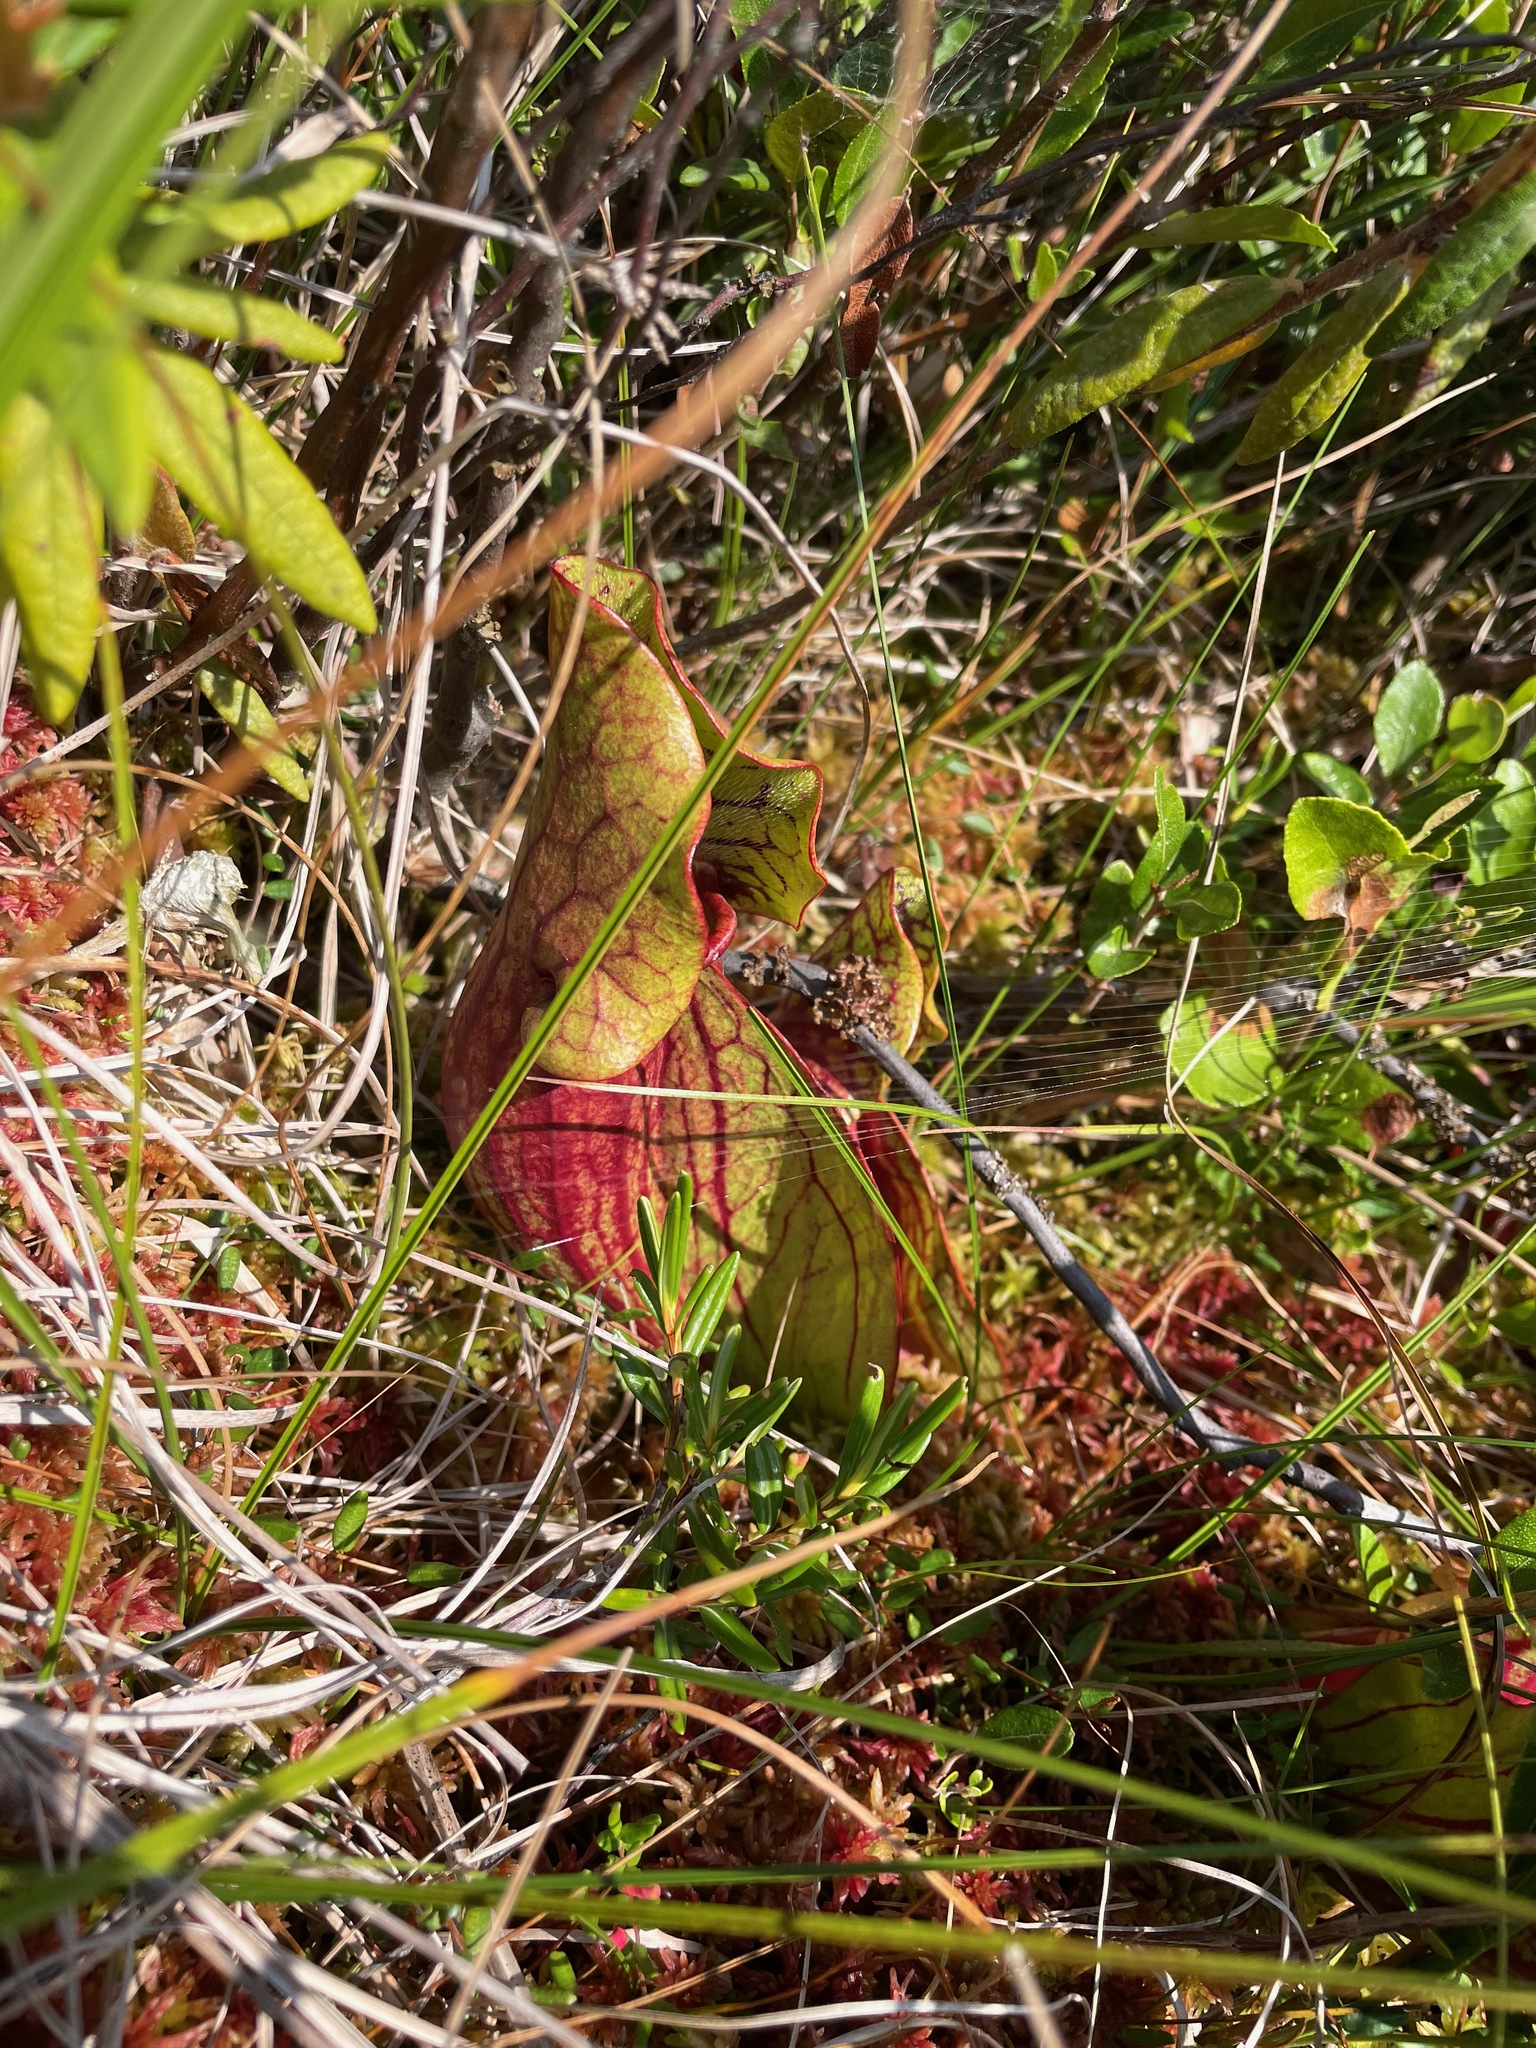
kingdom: Plantae
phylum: Tracheophyta
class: Magnoliopsida
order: Ericales
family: Sarraceniaceae
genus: Sarracenia
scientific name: Sarracenia purpurea
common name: Pitcherplant
